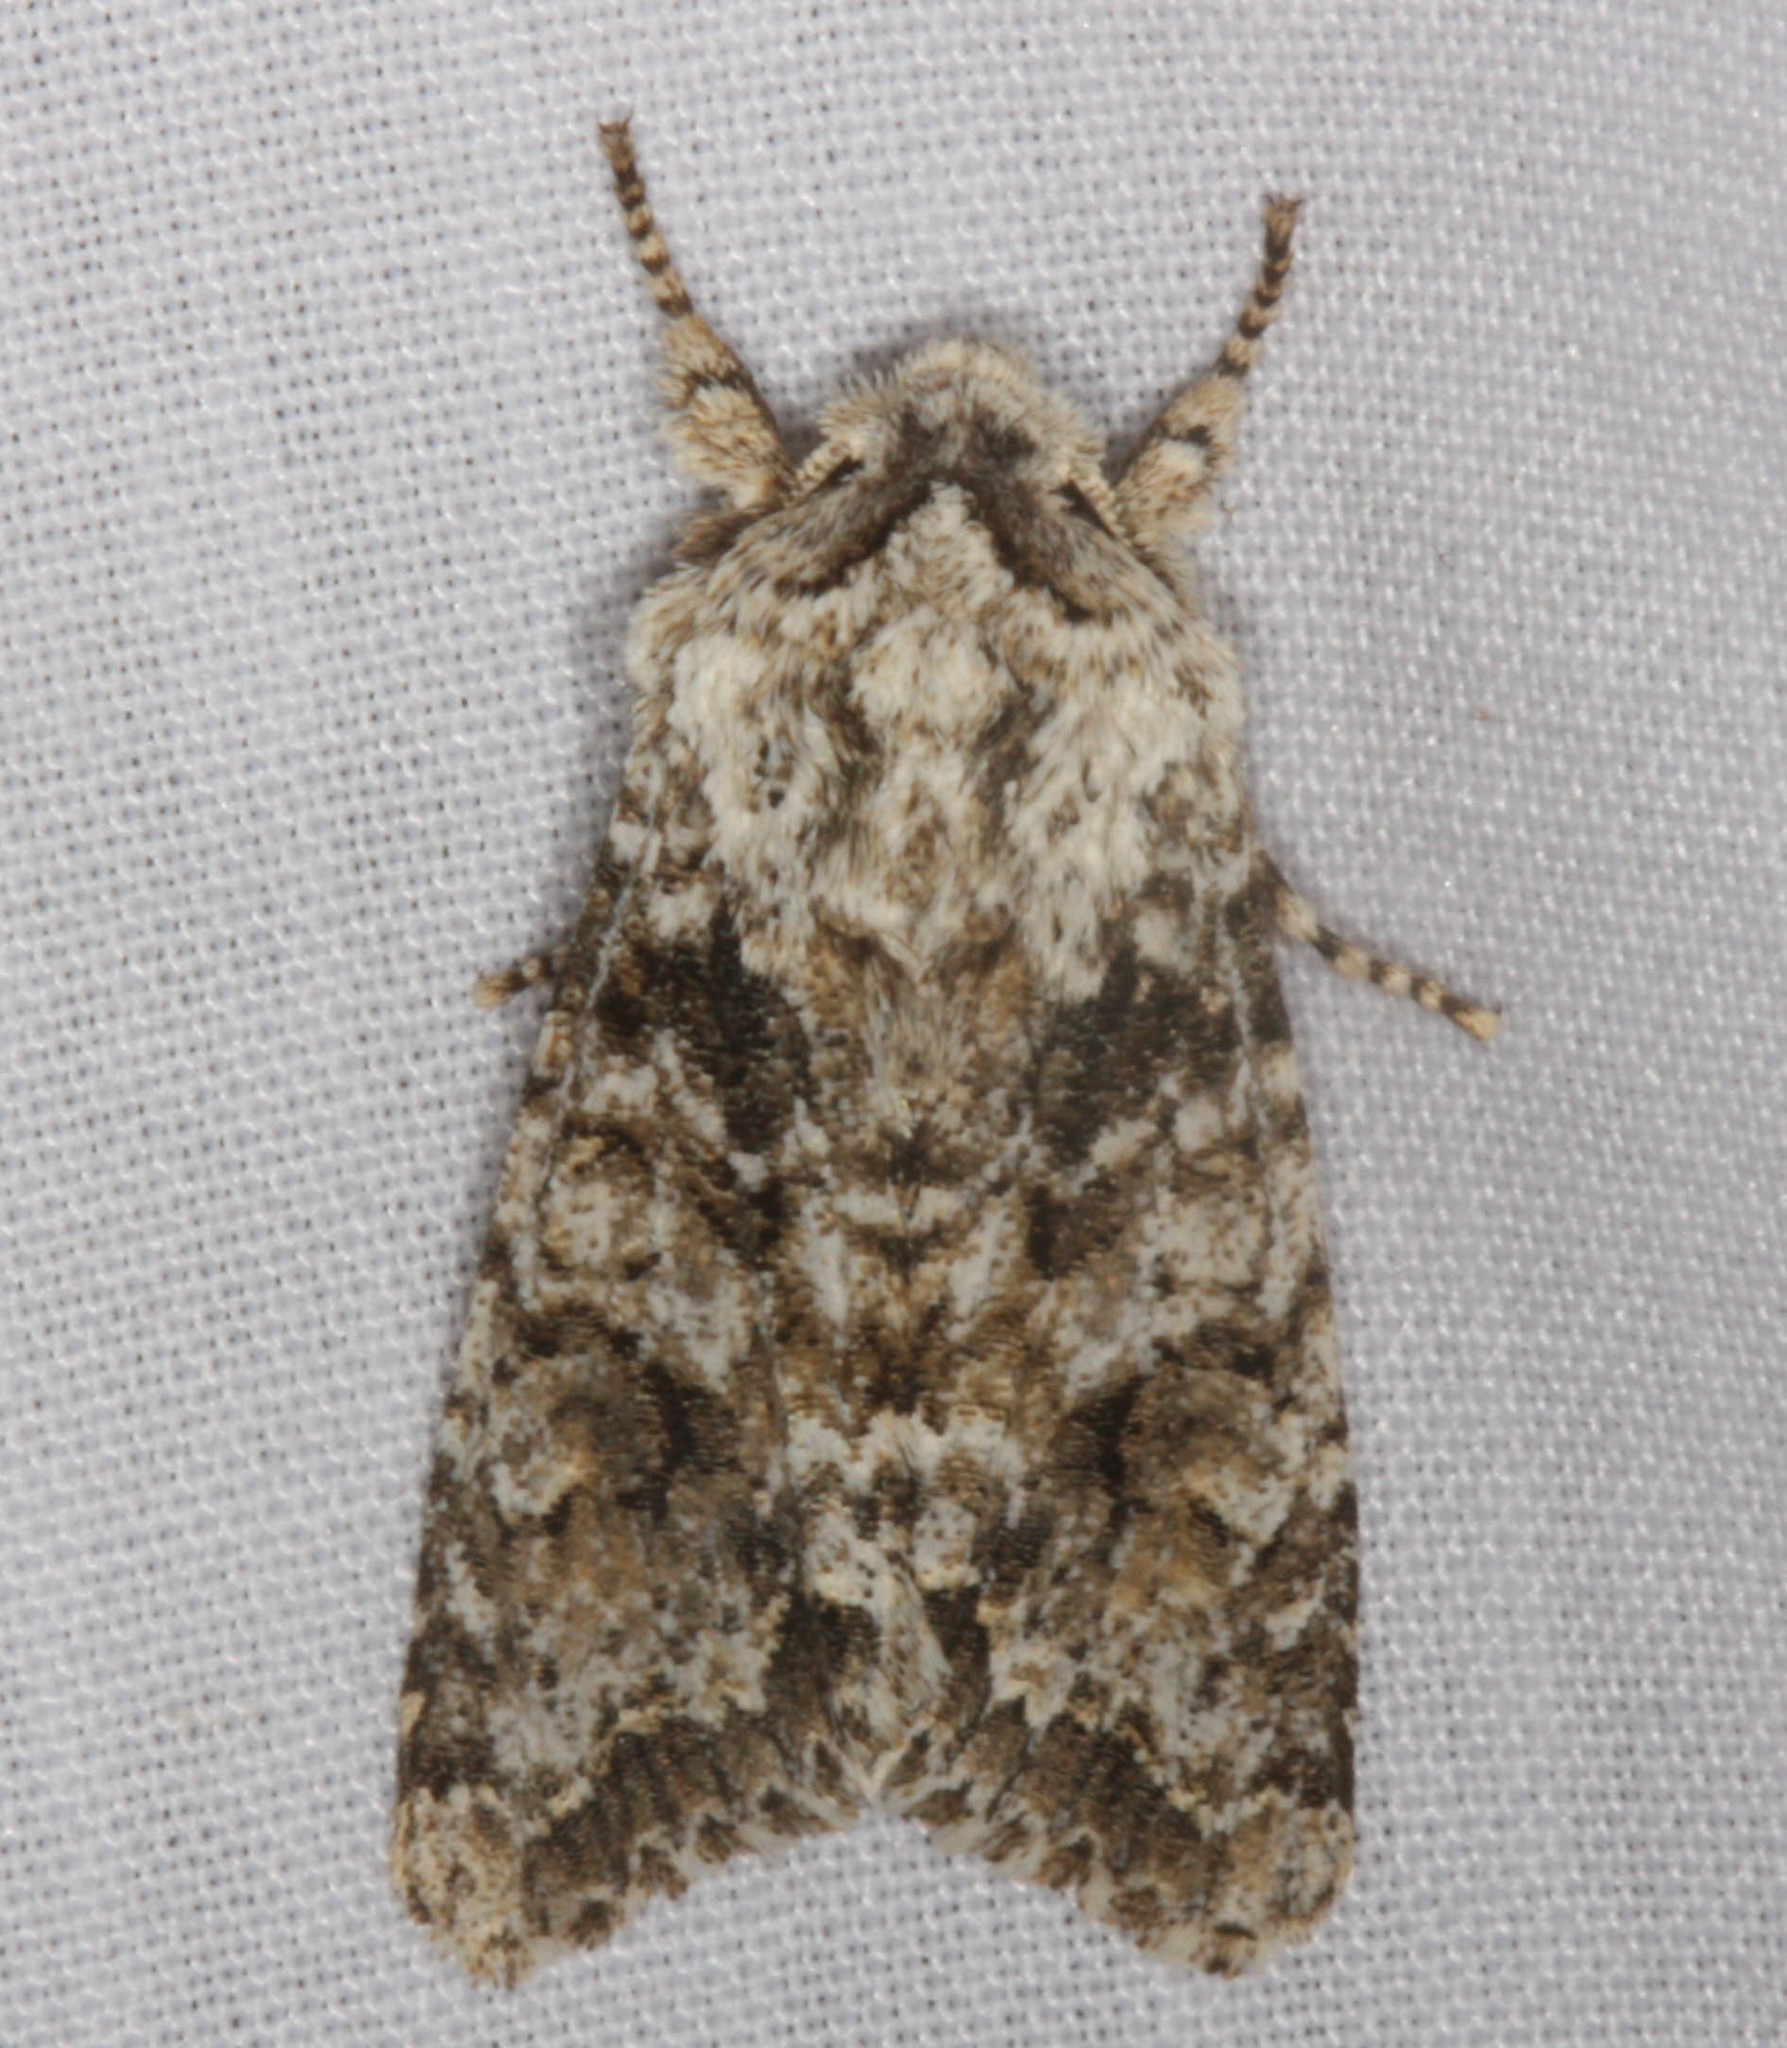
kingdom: Animalia
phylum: Arthropoda
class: Insecta
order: Lepidoptera
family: Noctuidae
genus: Egira
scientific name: Egira cognata
